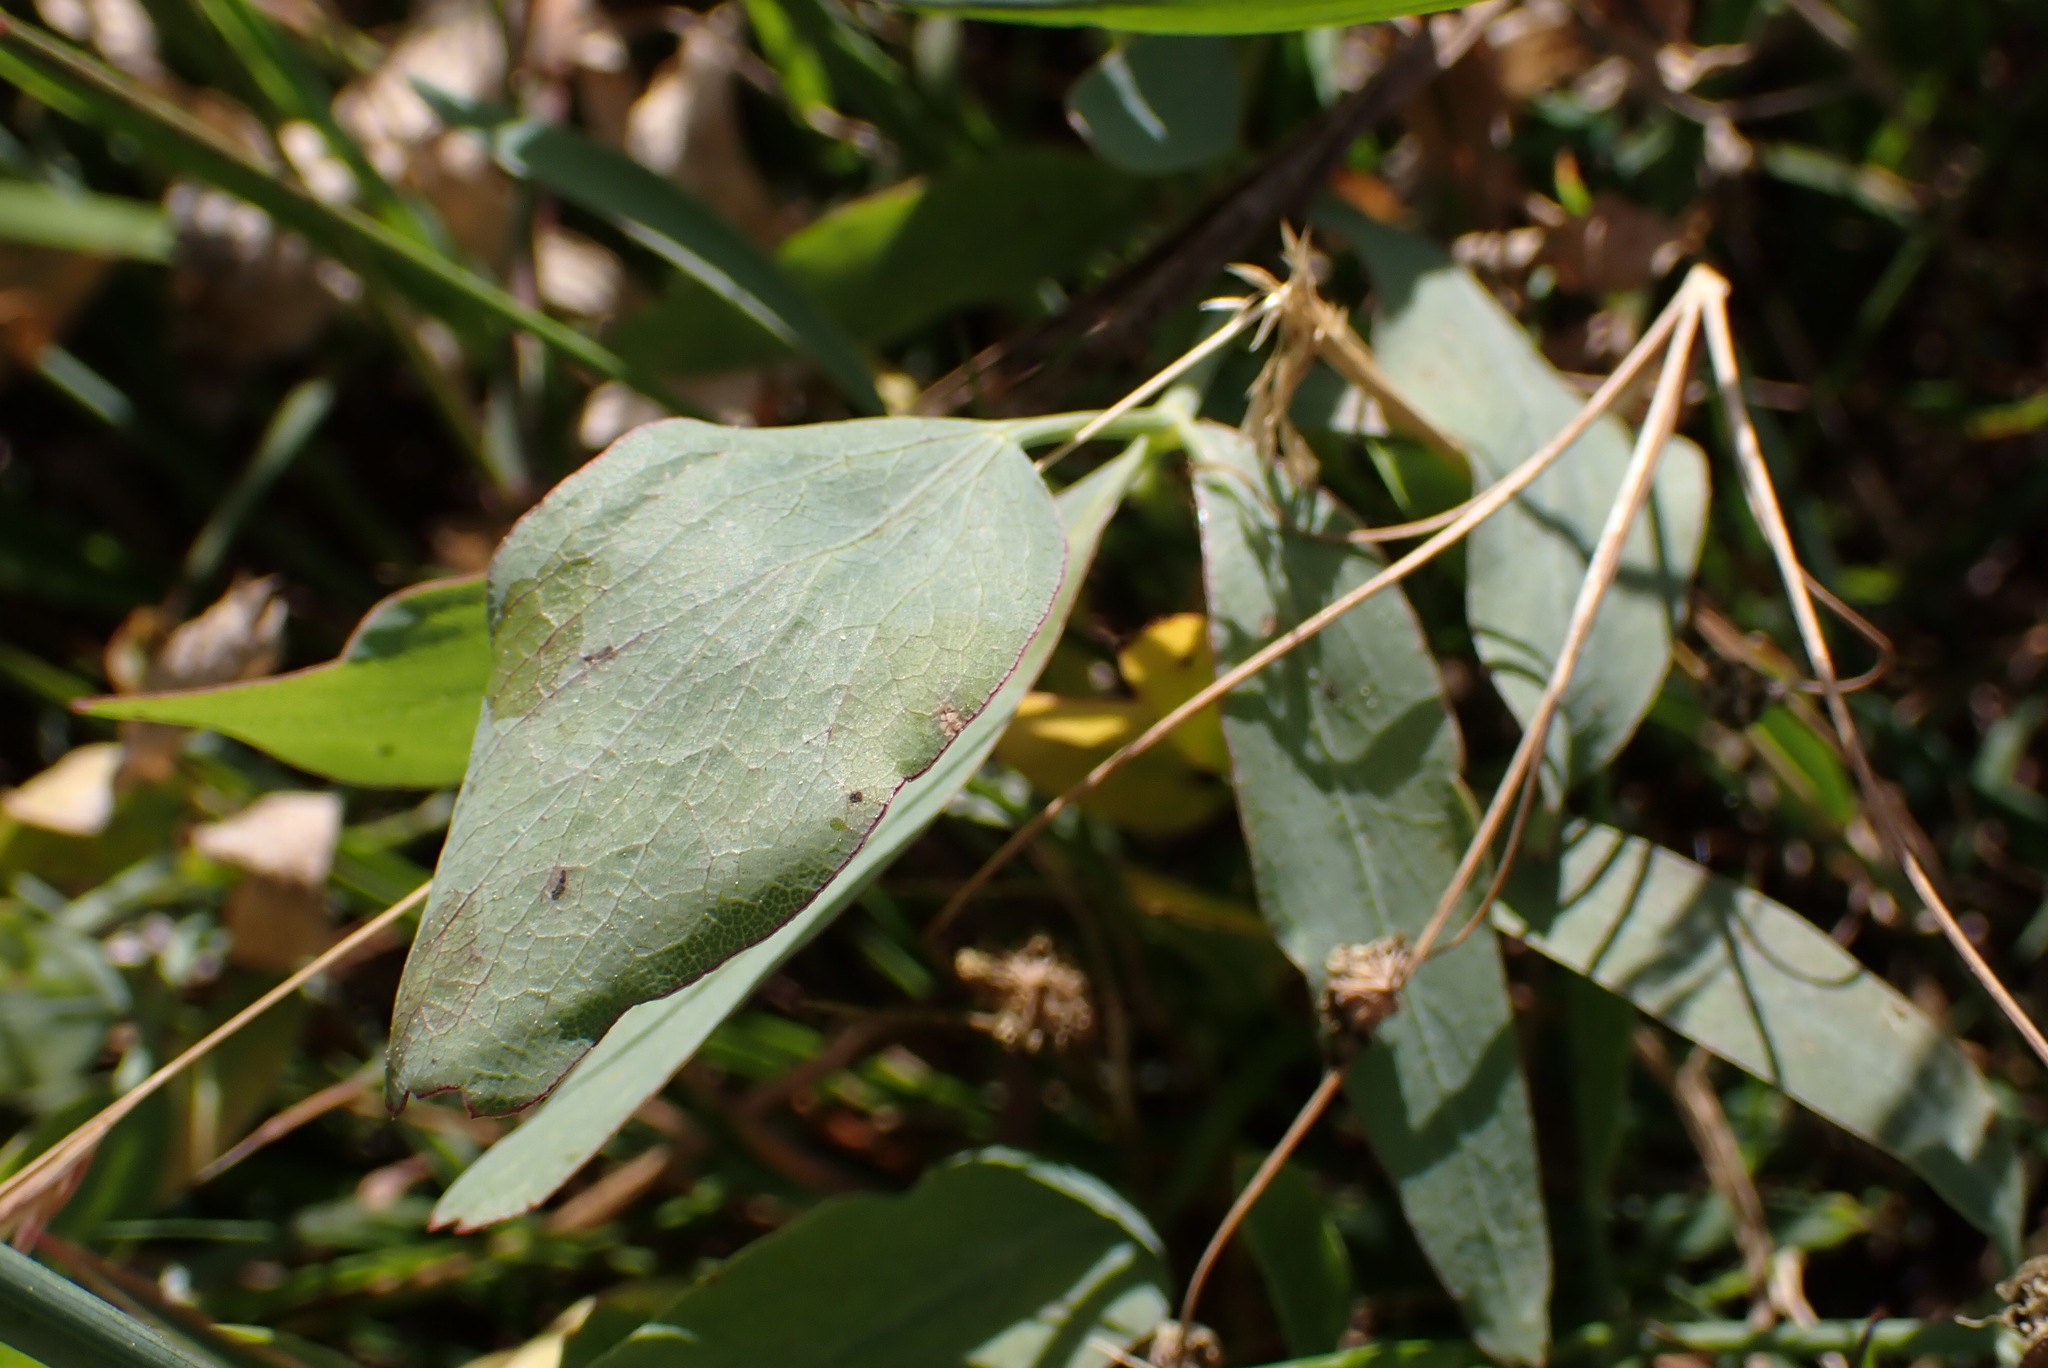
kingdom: Plantae
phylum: Tracheophyta
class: Magnoliopsida
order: Apiales
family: Apiaceae
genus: Lomatium
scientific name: Lomatium nudicaule
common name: Pestle lomatium
